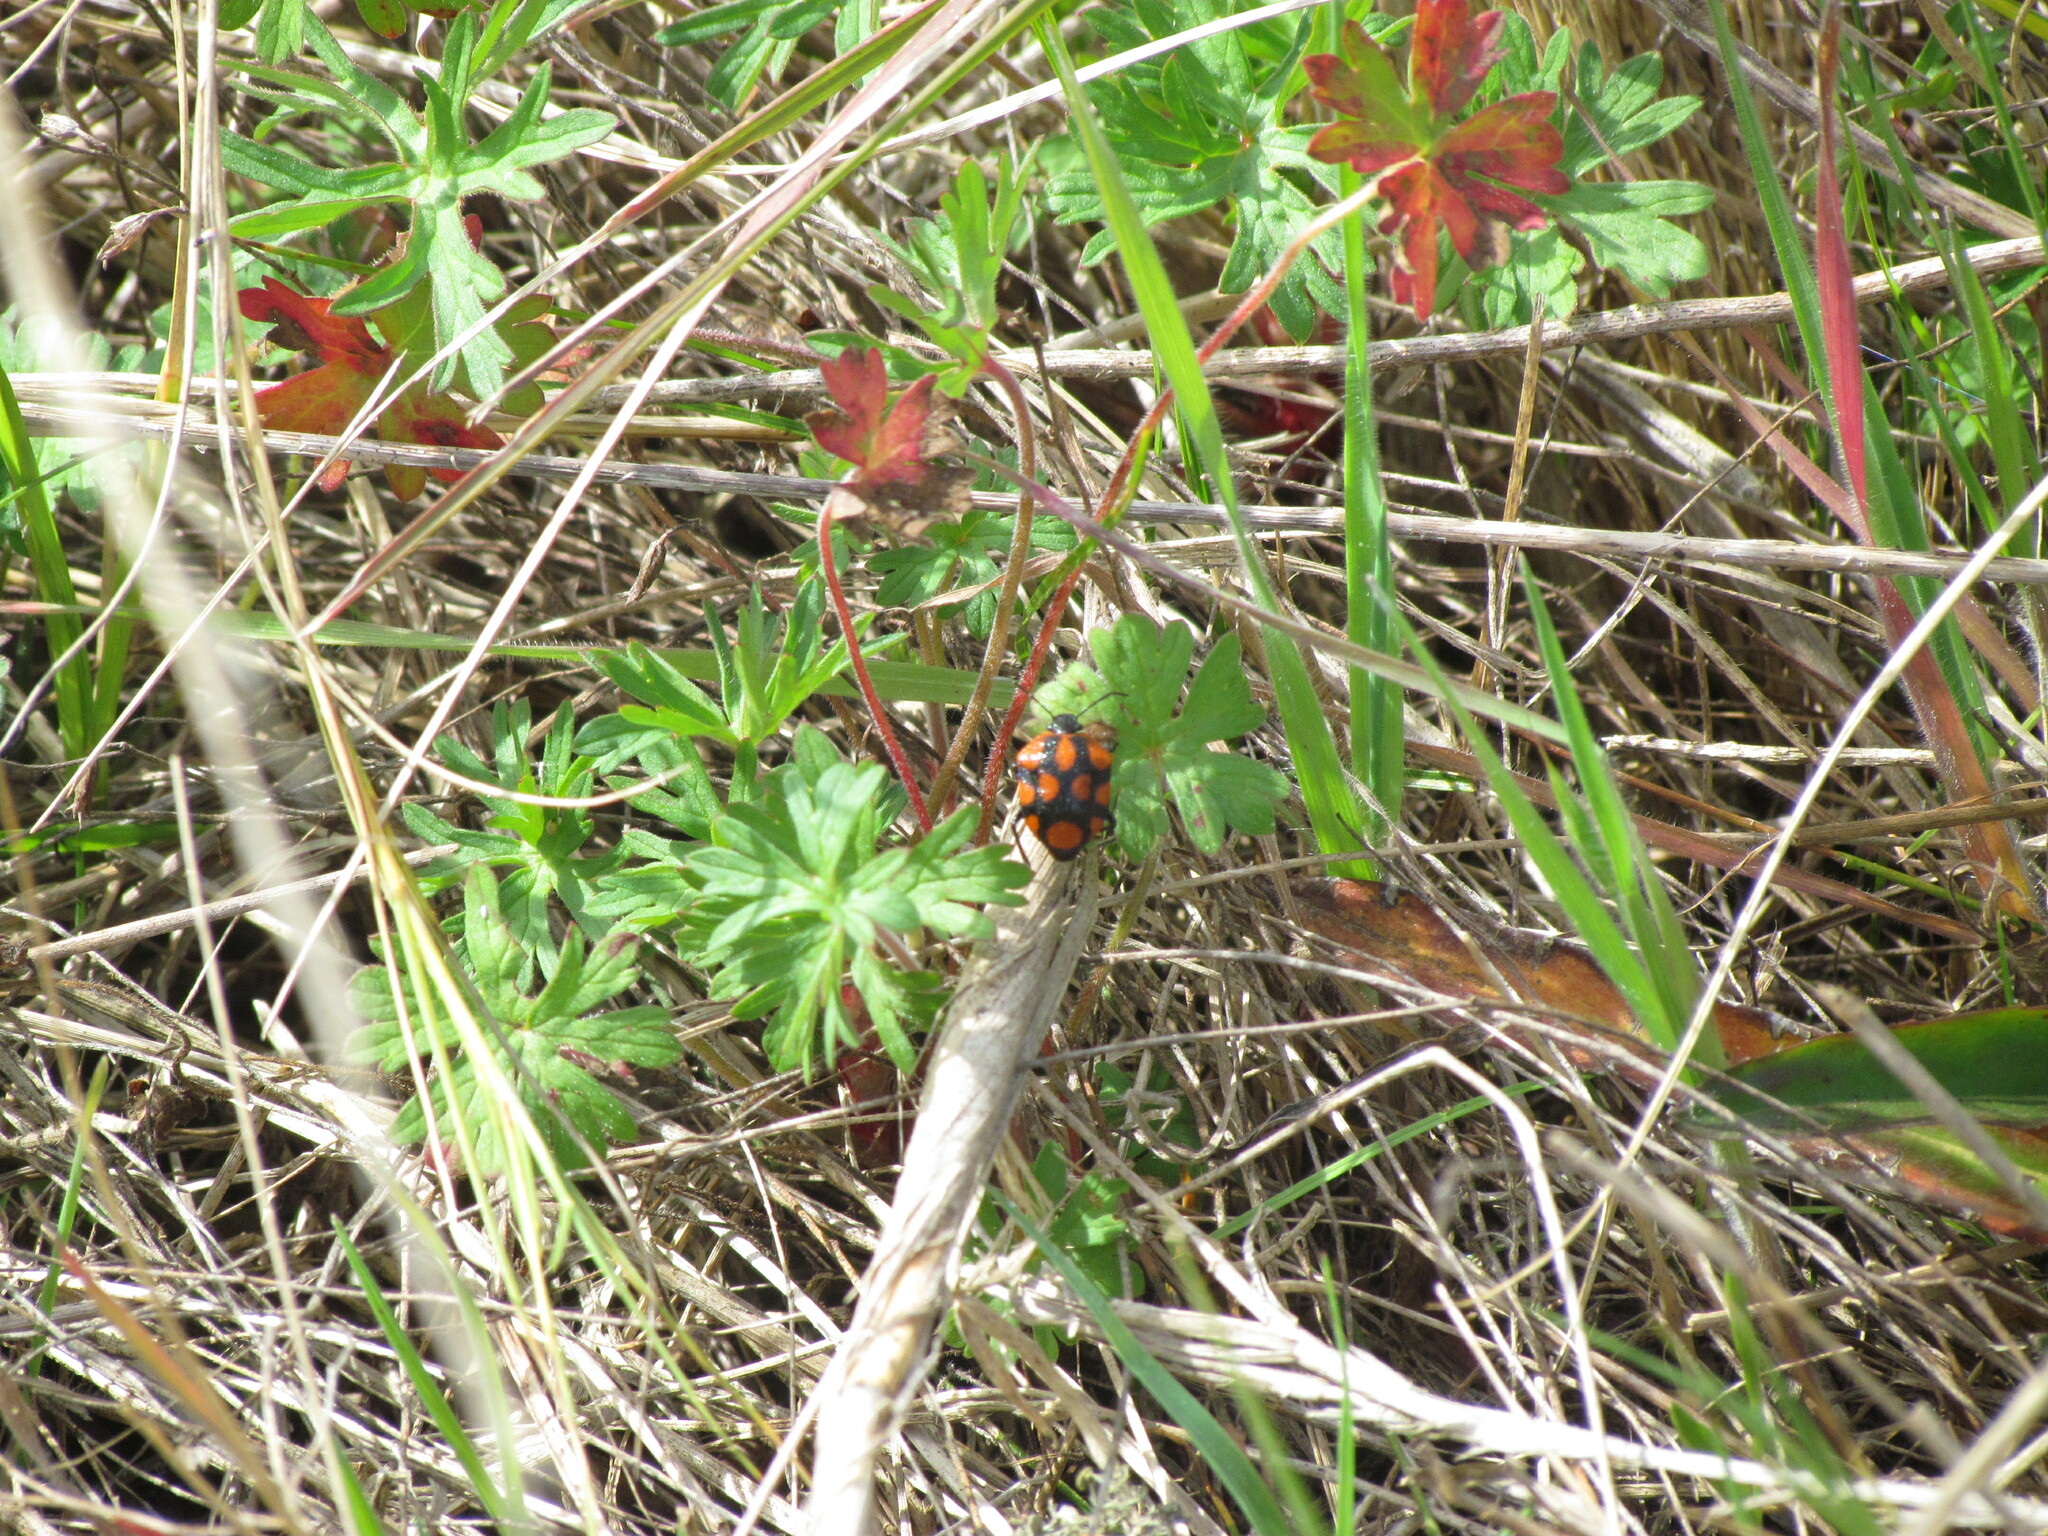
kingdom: Animalia
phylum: Arthropoda
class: Insecta
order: Hemiptera
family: Pentatomidae
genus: Stiretrus
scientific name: Stiretrus
